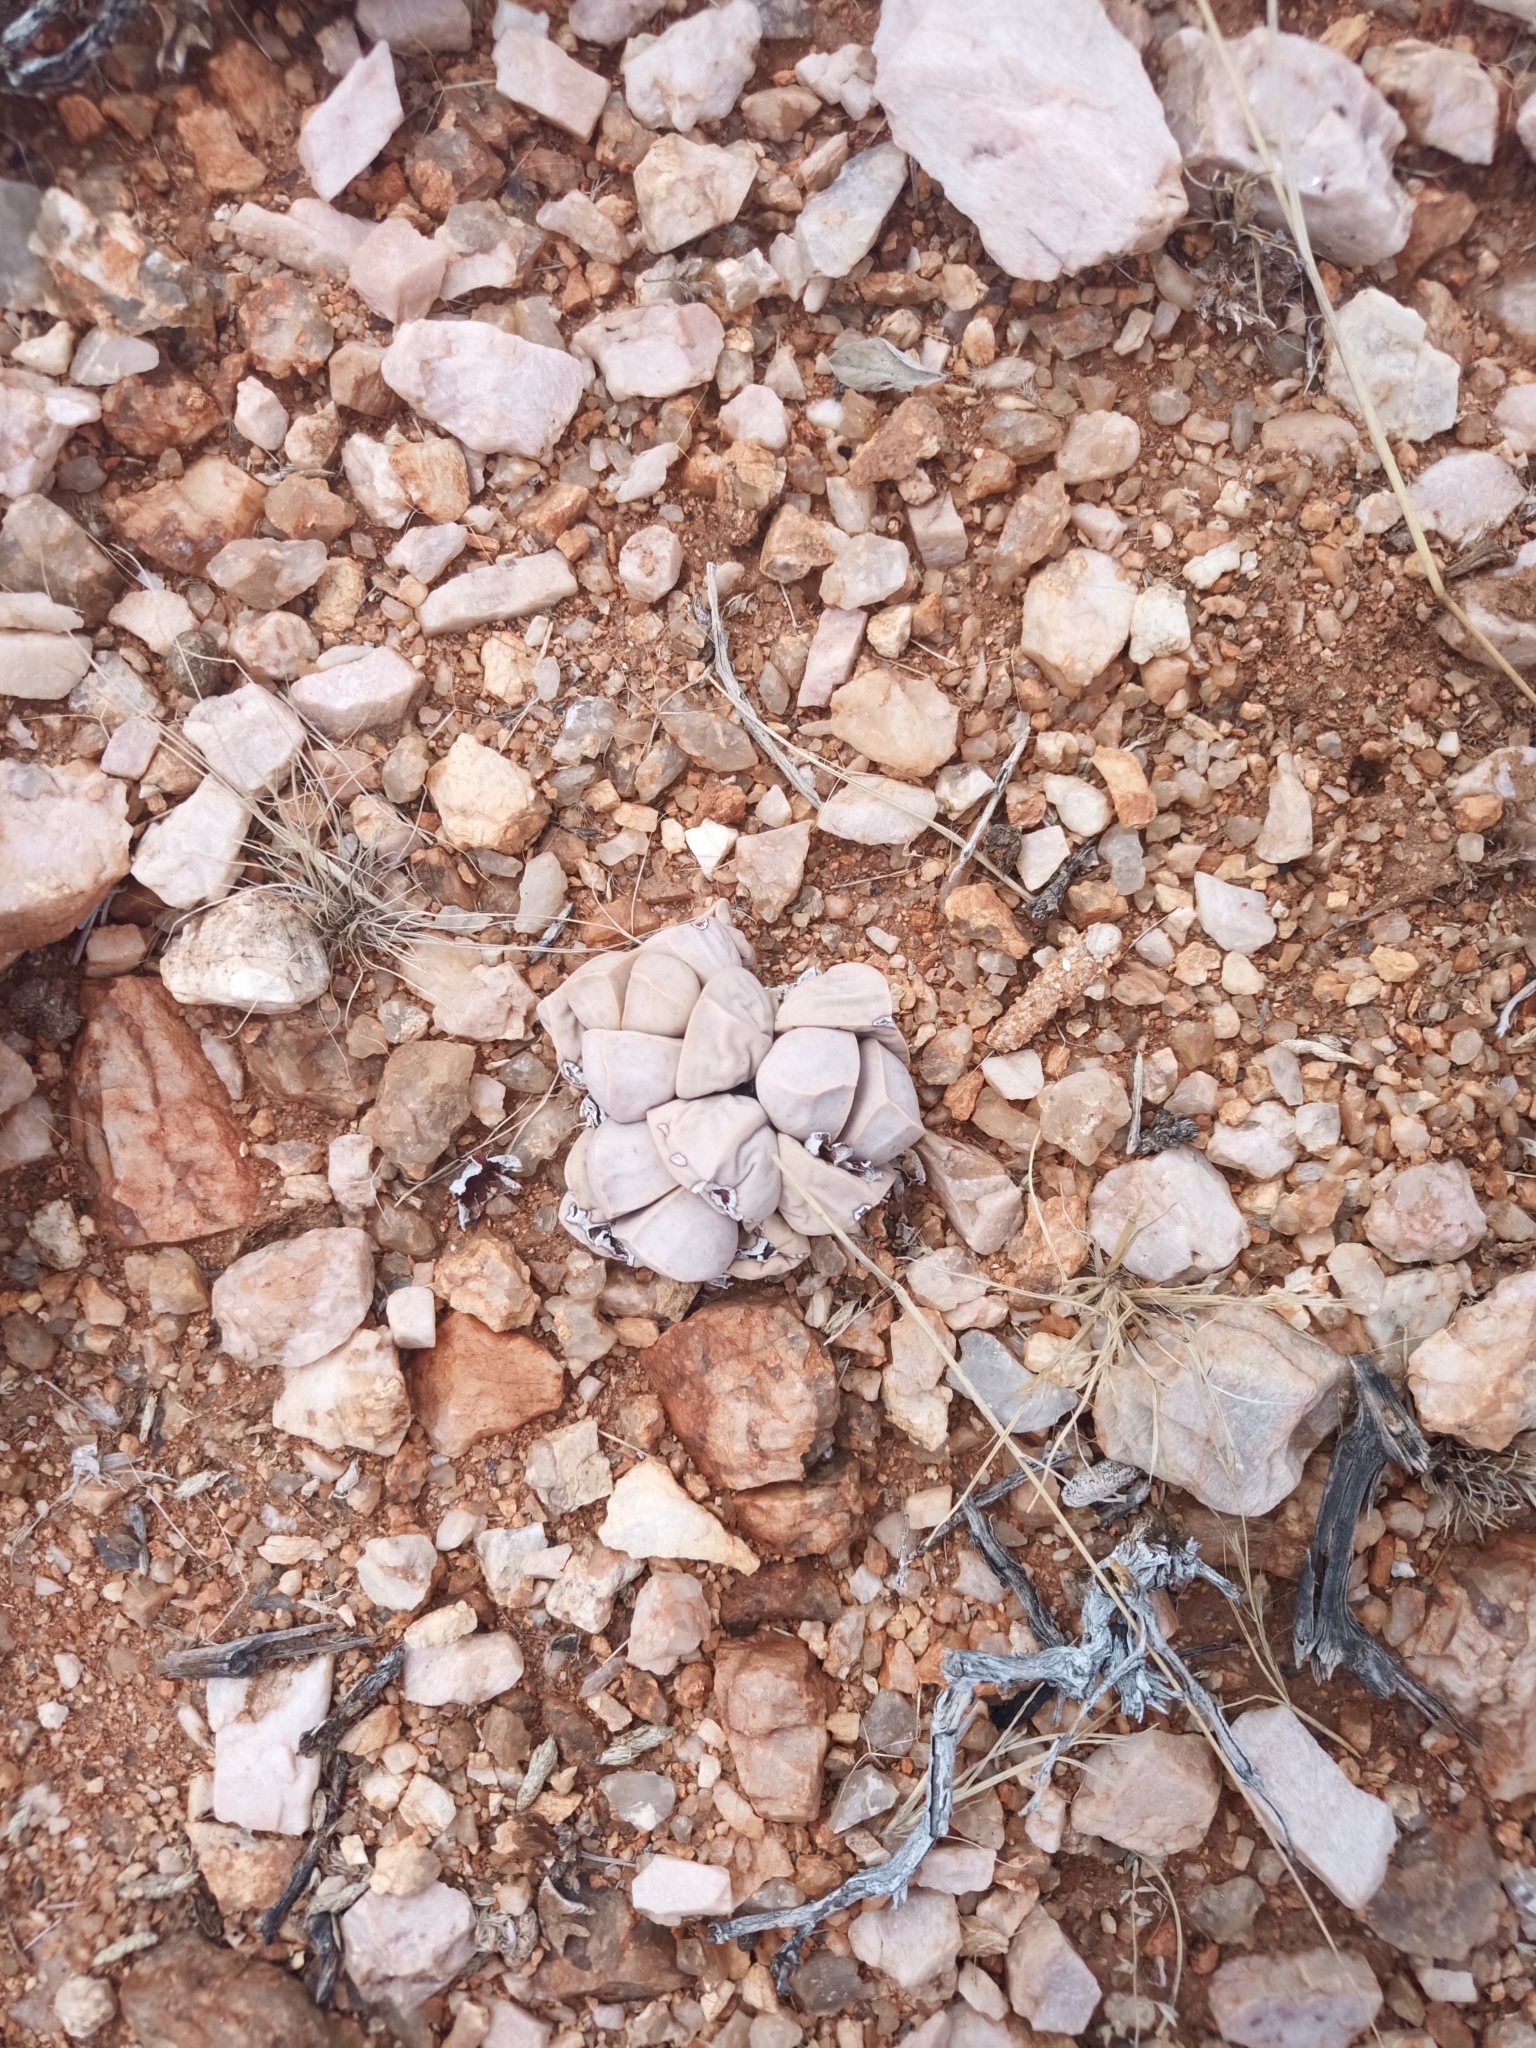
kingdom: Plantae
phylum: Tracheophyta
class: Magnoliopsida
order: Caryophyllales
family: Aizoaceae
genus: Lapidaria
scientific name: Lapidaria margaretae
